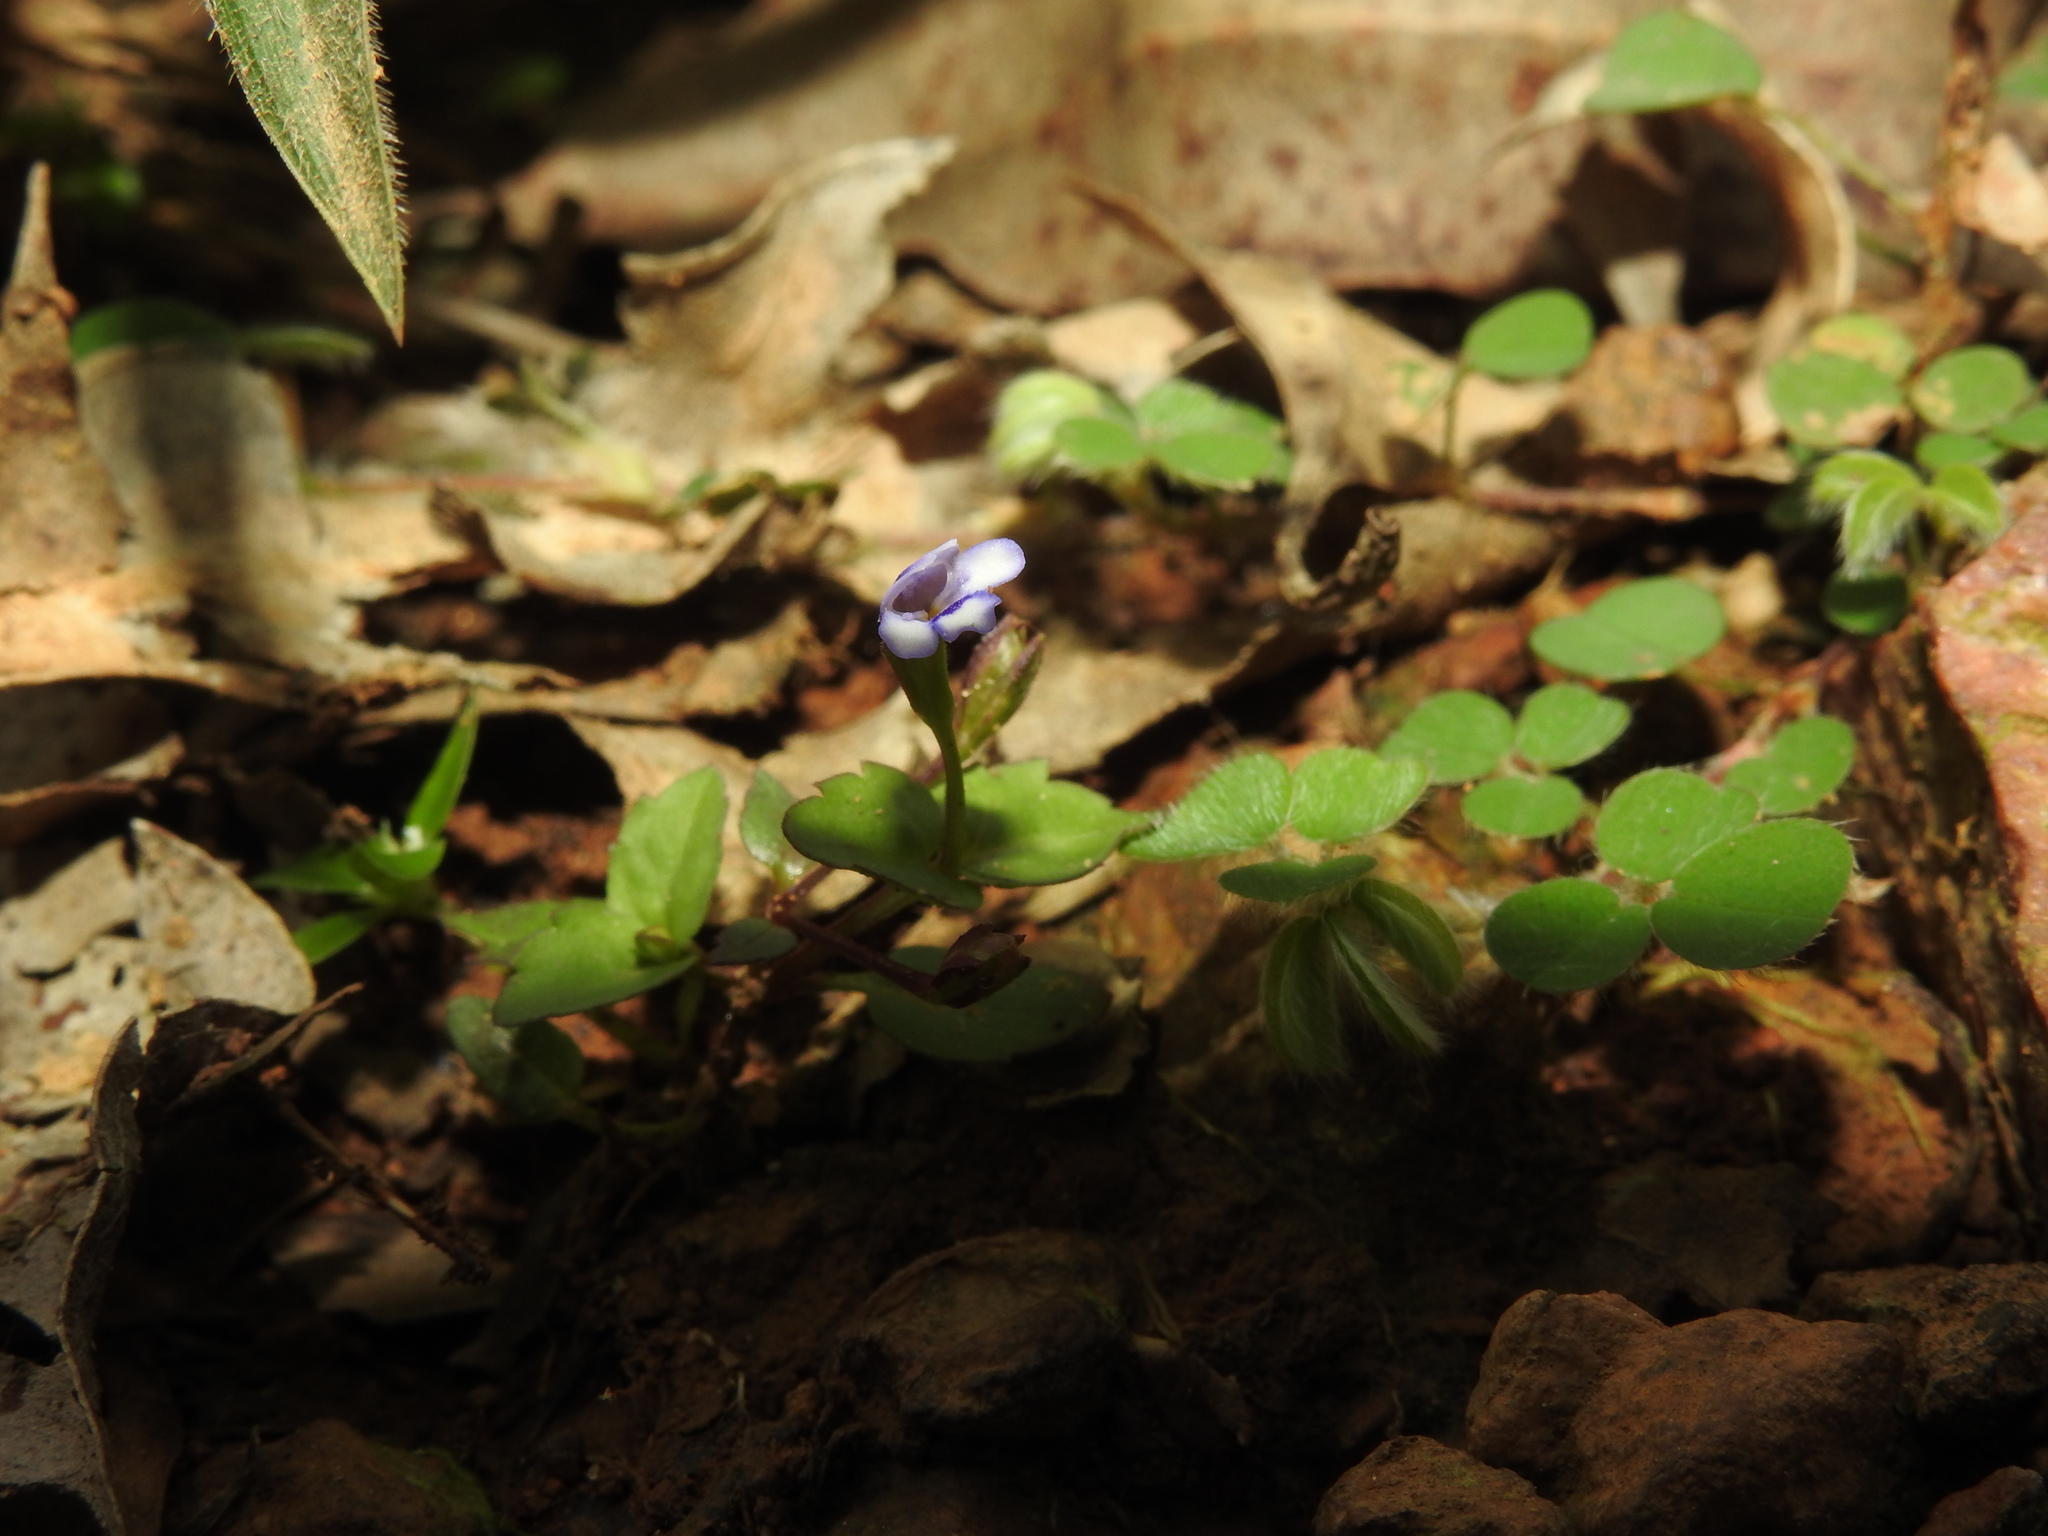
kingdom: Plantae
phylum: Tracheophyta
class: Magnoliopsida
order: Lamiales
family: Linderniaceae
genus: Torenia
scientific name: Torenia crustacea
